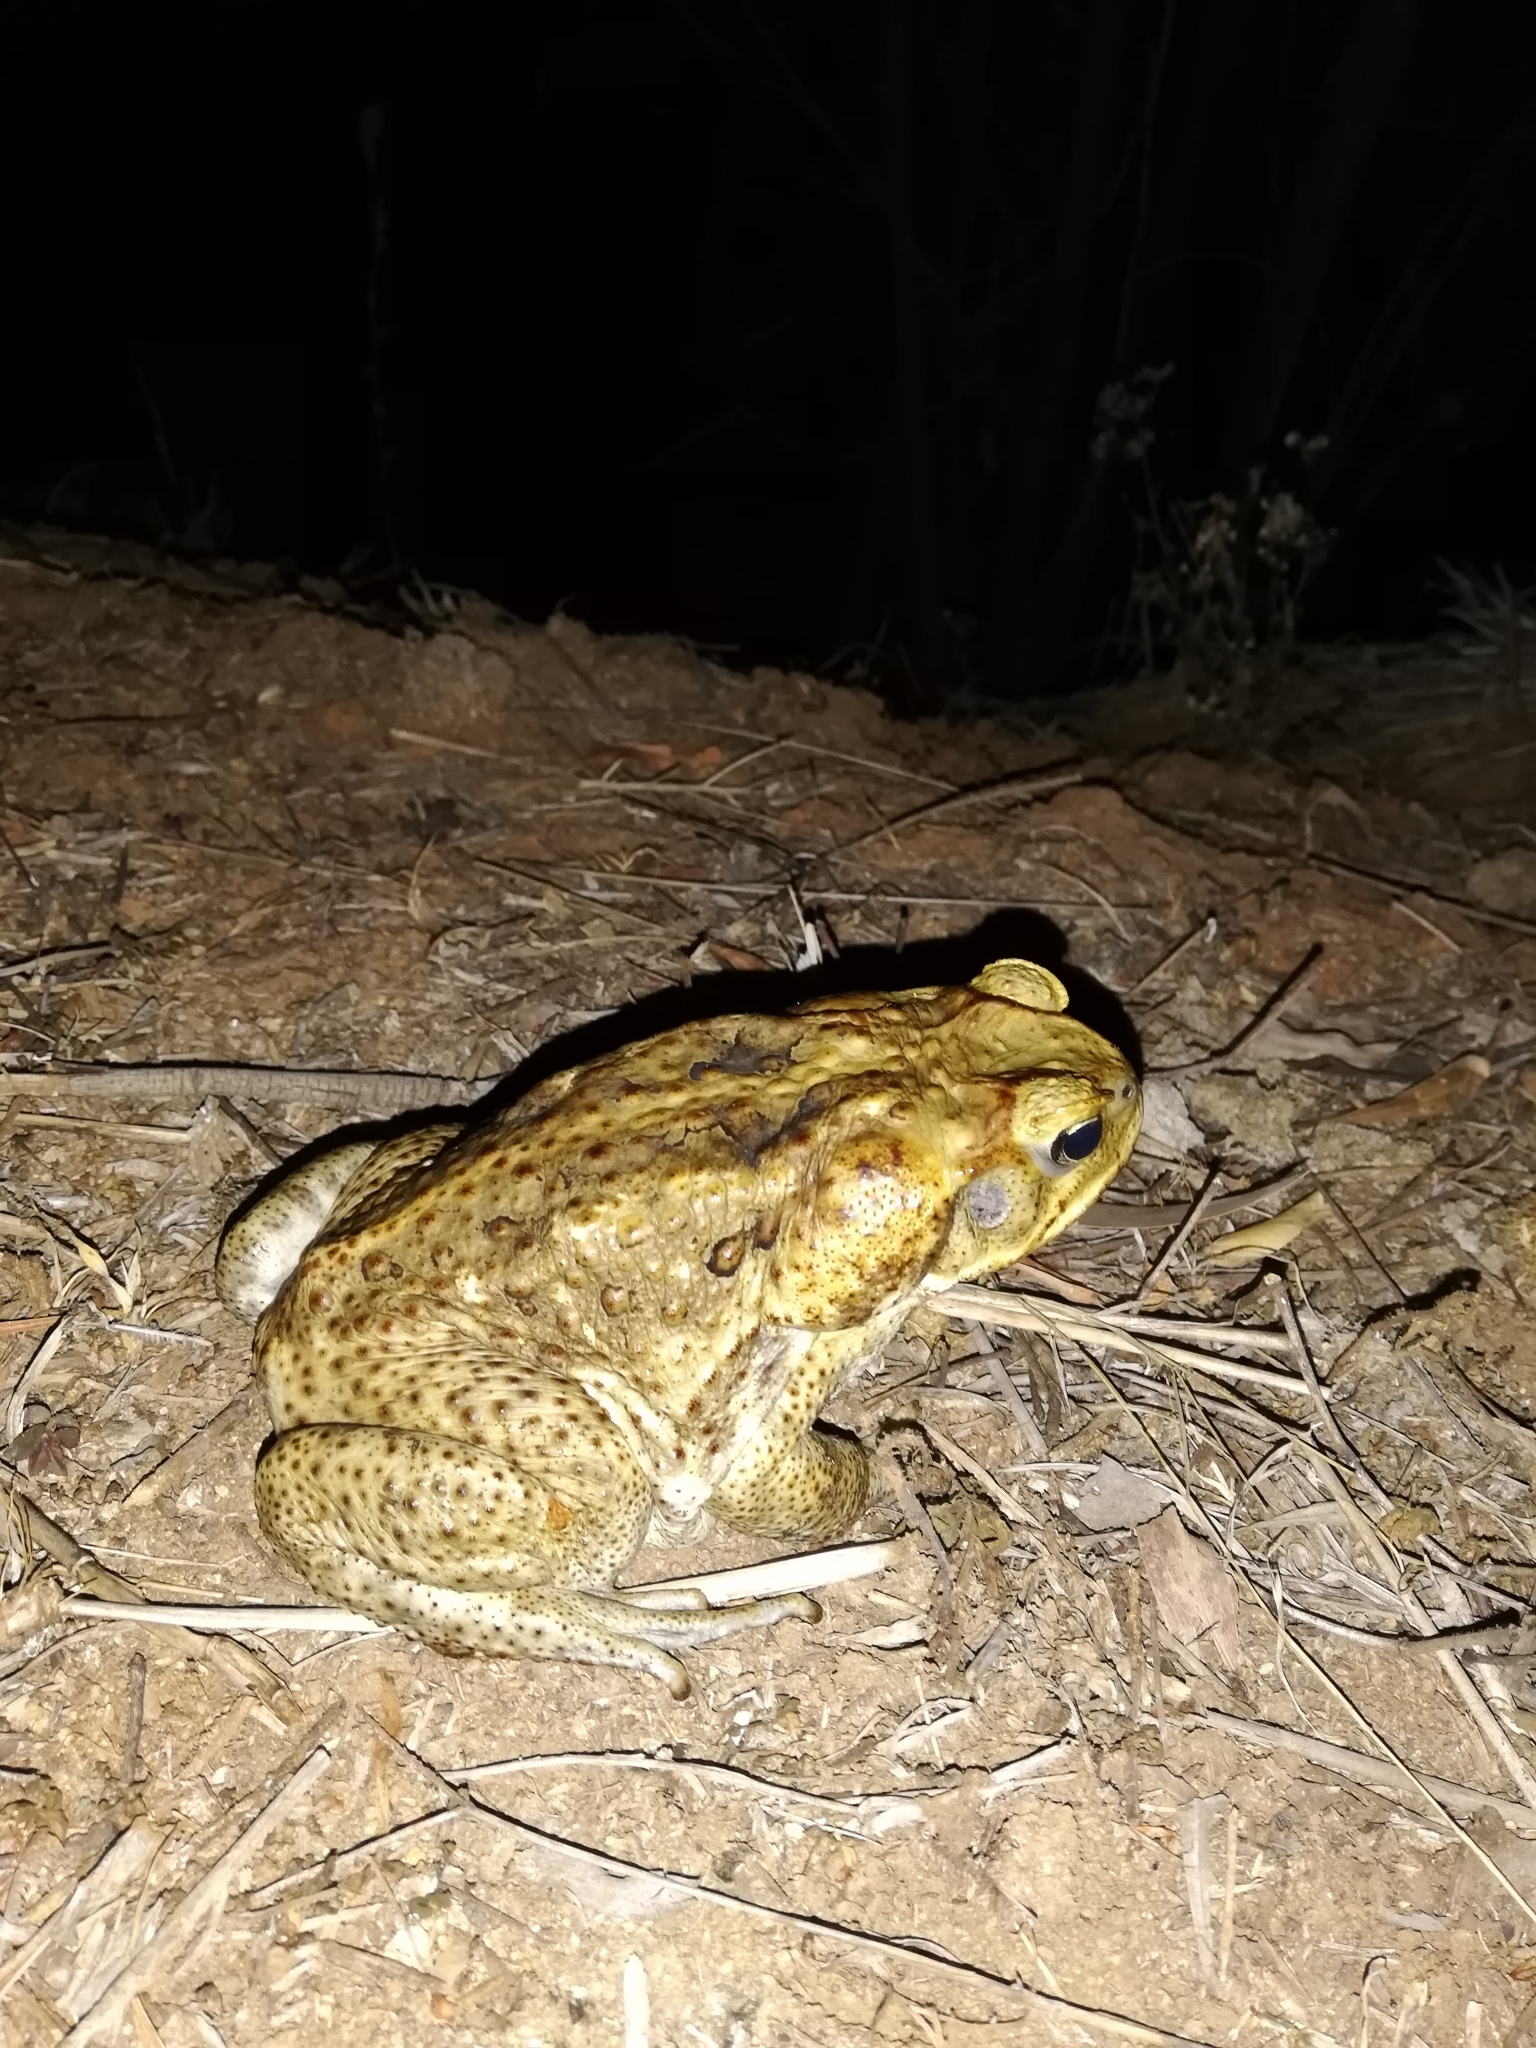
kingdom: Animalia
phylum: Chordata
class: Amphibia
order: Anura
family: Bufonidae
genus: Rhinella
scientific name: Rhinella marina
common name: Cane toad
